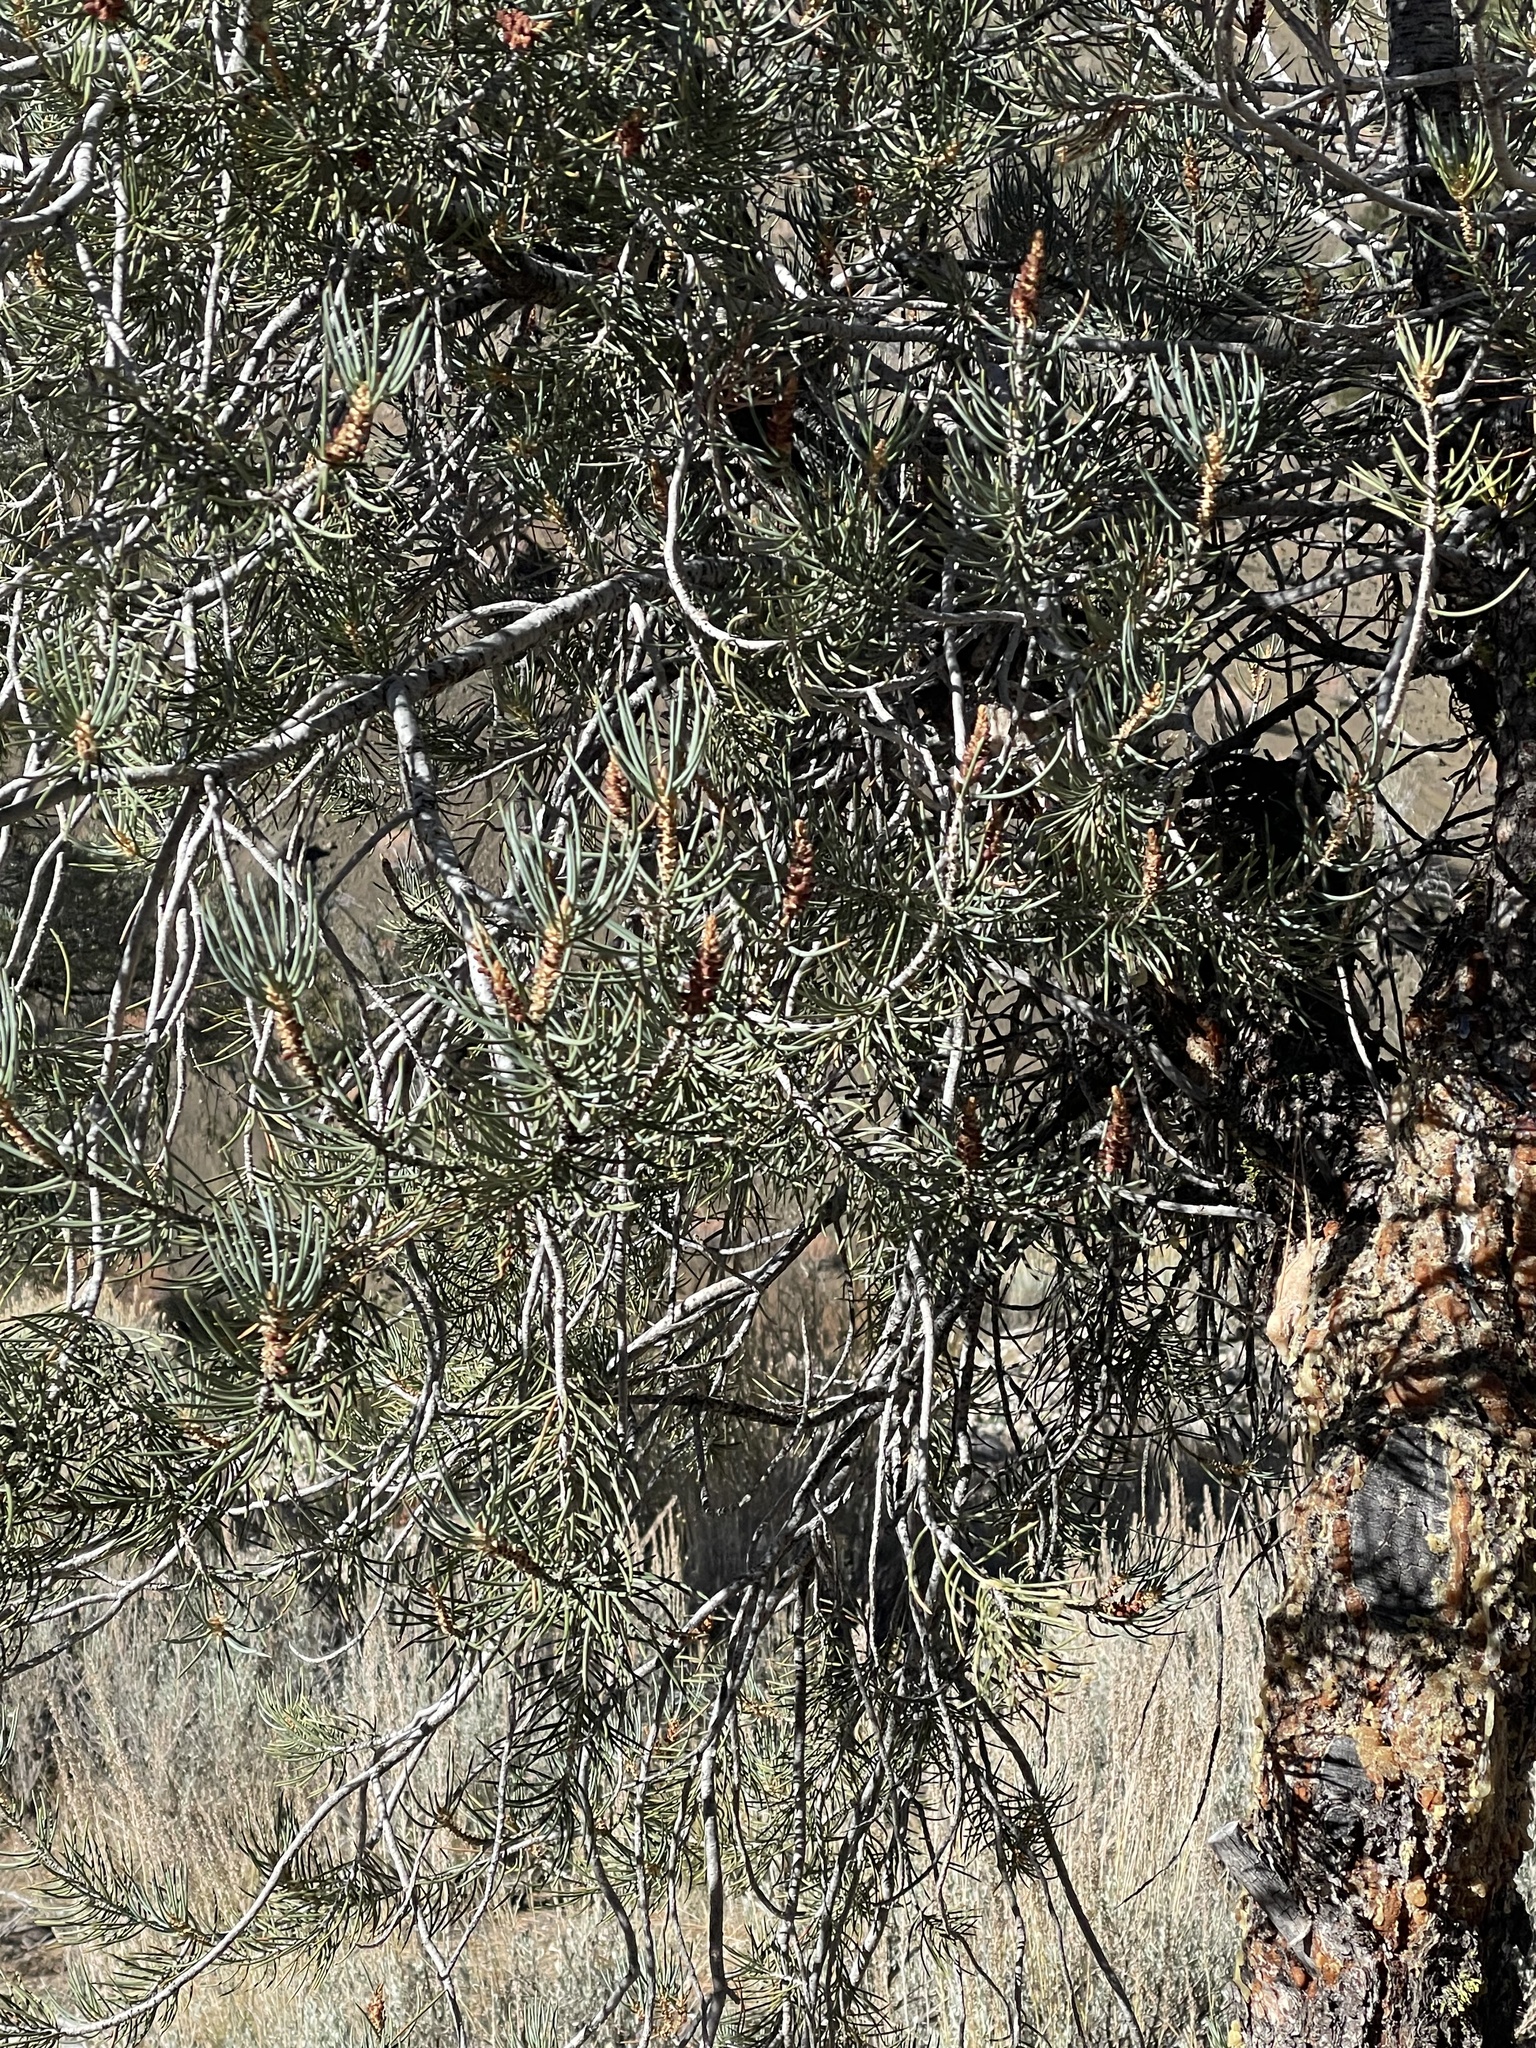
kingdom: Plantae
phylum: Tracheophyta
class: Pinopsida
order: Pinales
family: Pinaceae
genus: Pinus
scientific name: Pinus monophylla
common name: One-leaved nut pine
